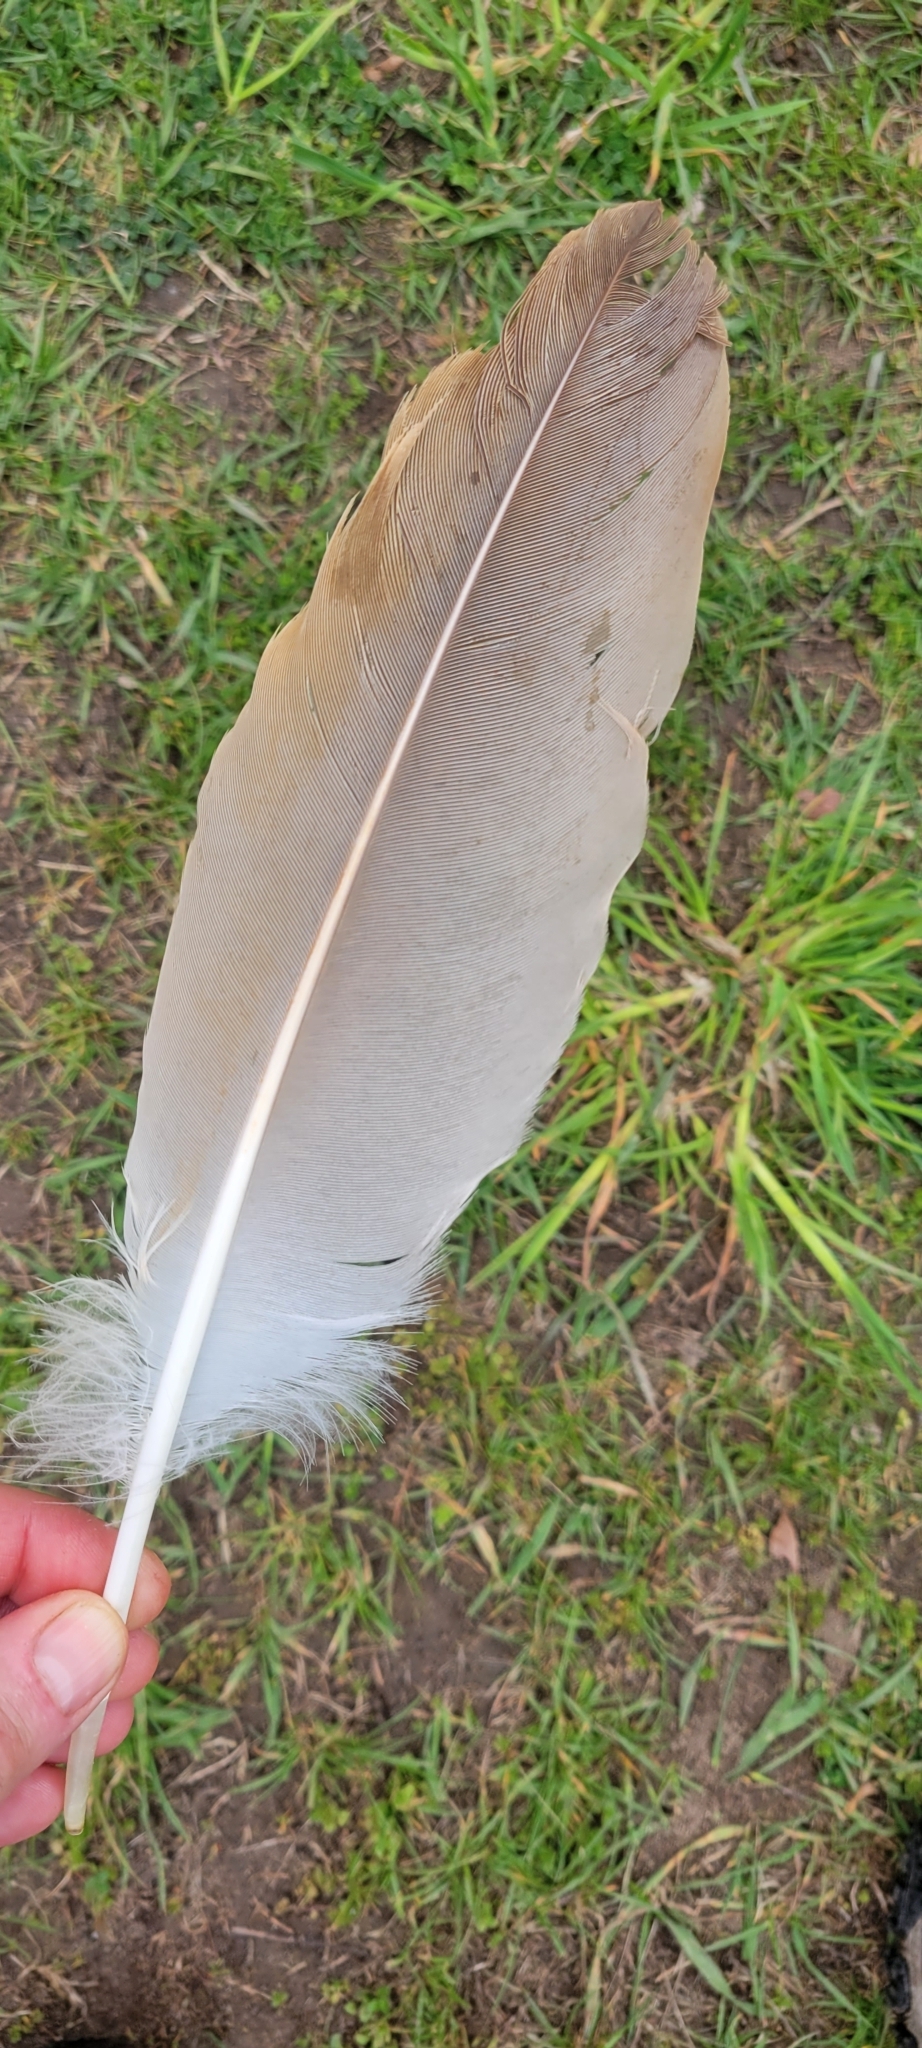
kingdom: Animalia
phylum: Chordata
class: Aves
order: Gruiformes
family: Gruidae
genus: Grus
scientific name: Grus canadensis
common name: Sandhill crane
